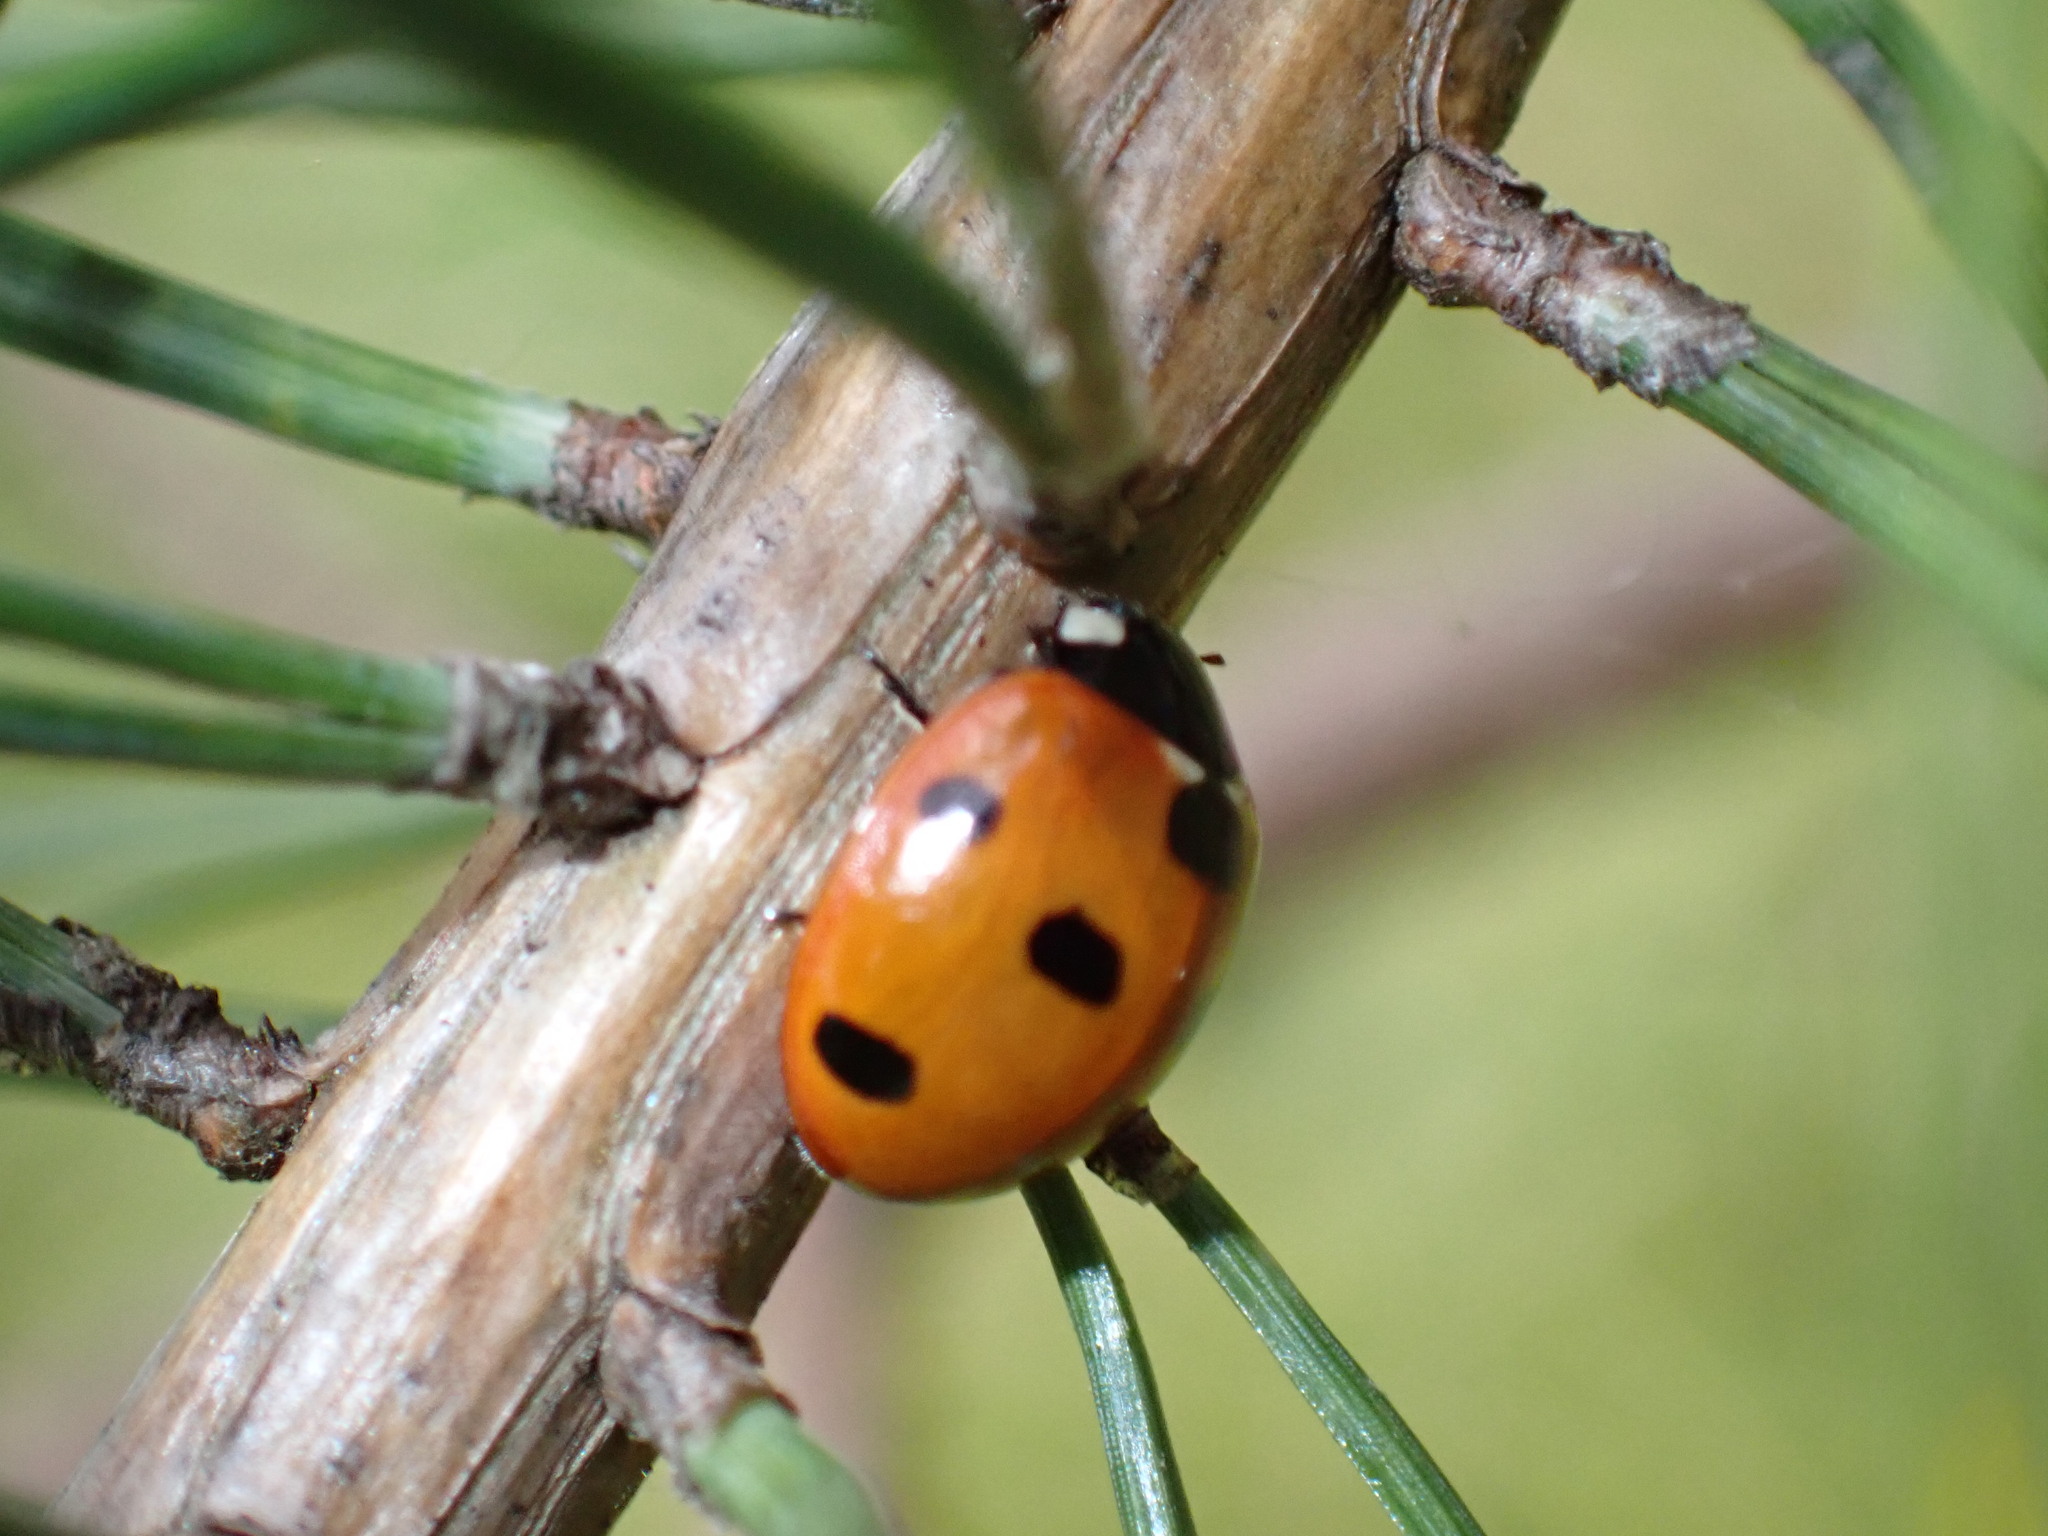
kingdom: Animalia
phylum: Arthropoda
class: Insecta
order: Coleoptera
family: Coccinellidae
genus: Coccinella
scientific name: Coccinella septempunctata
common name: Sevenspotted lady beetle
